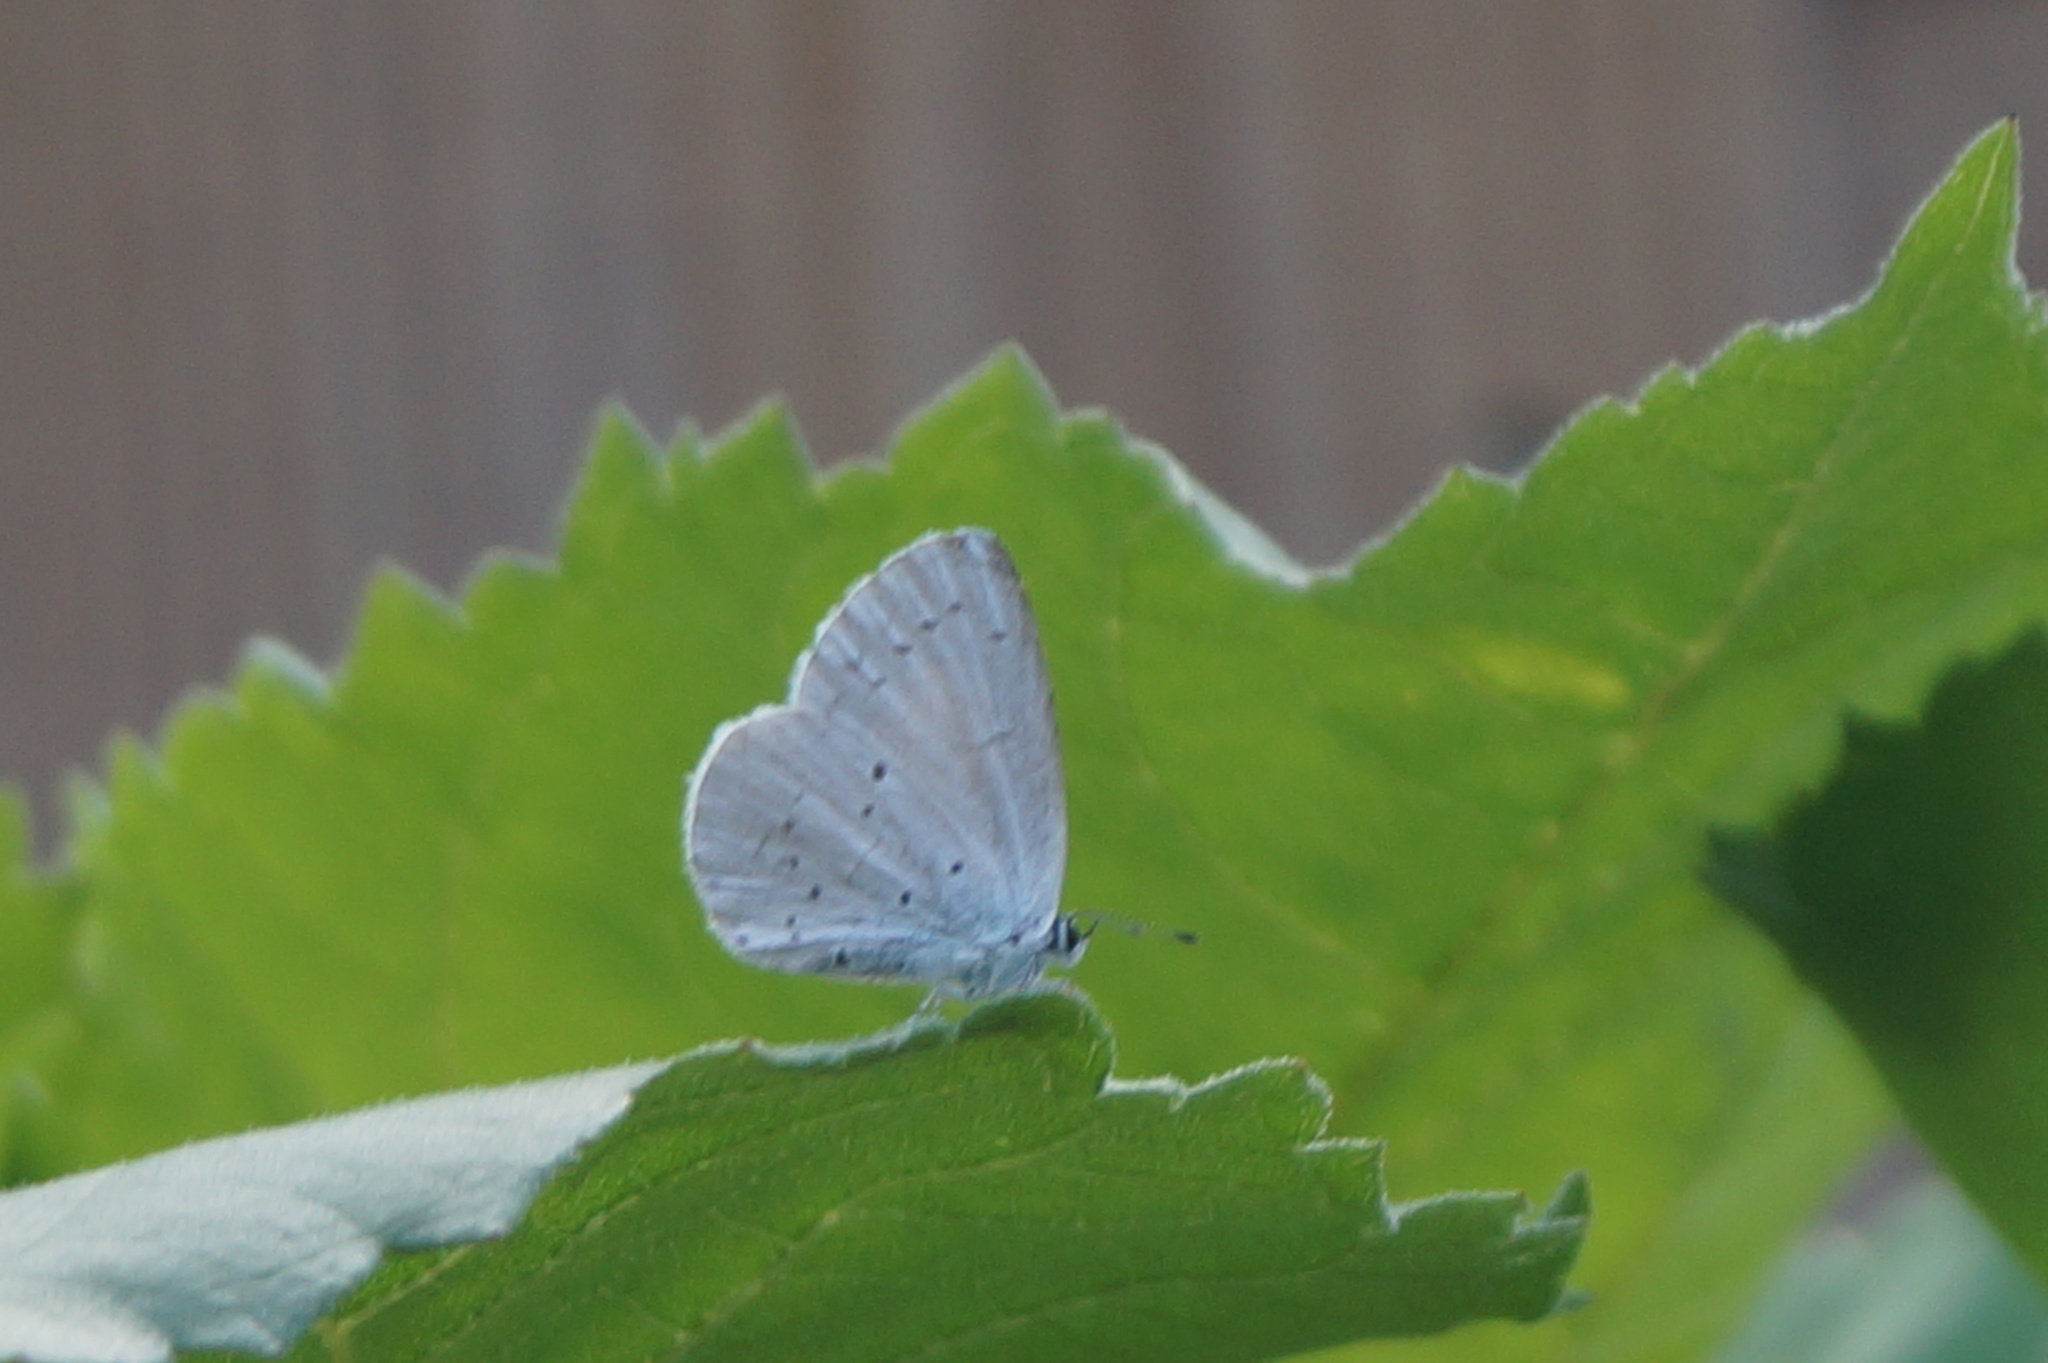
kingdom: Animalia
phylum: Arthropoda
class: Insecta
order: Lepidoptera
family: Lycaenidae
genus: Celastrina
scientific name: Celastrina argiolus
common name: Holly blue
